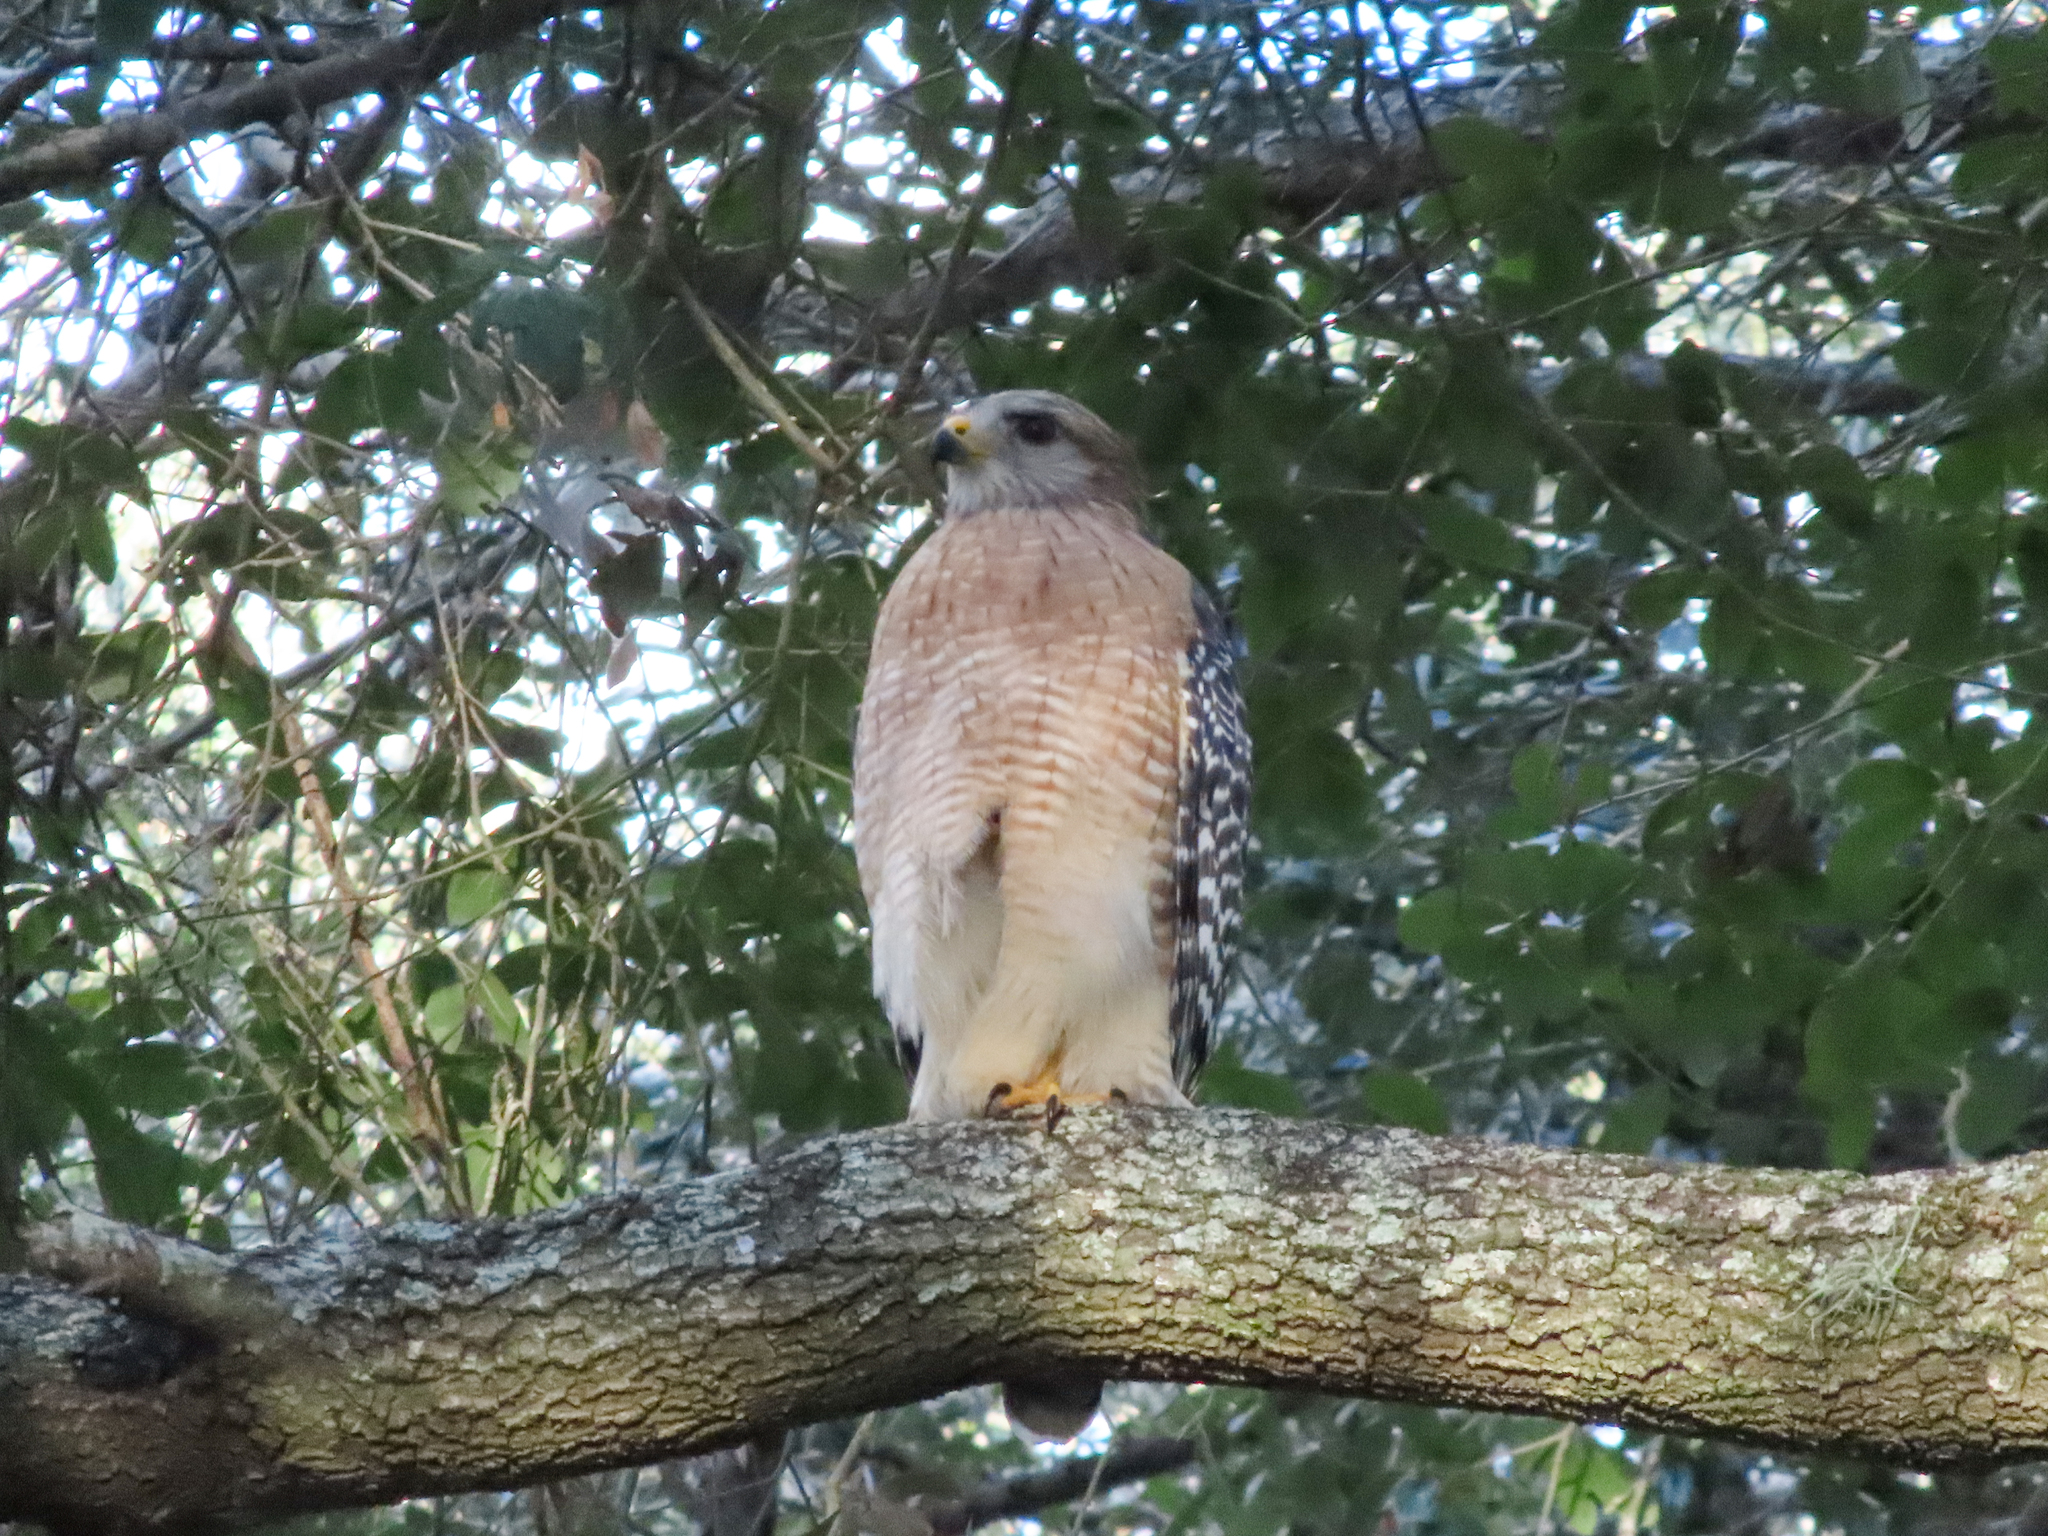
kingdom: Animalia
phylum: Chordata
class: Aves
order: Accipitriformes
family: Accipitridae
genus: Buteo
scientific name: Buteo lineatus
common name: Red-shouldered hawk
